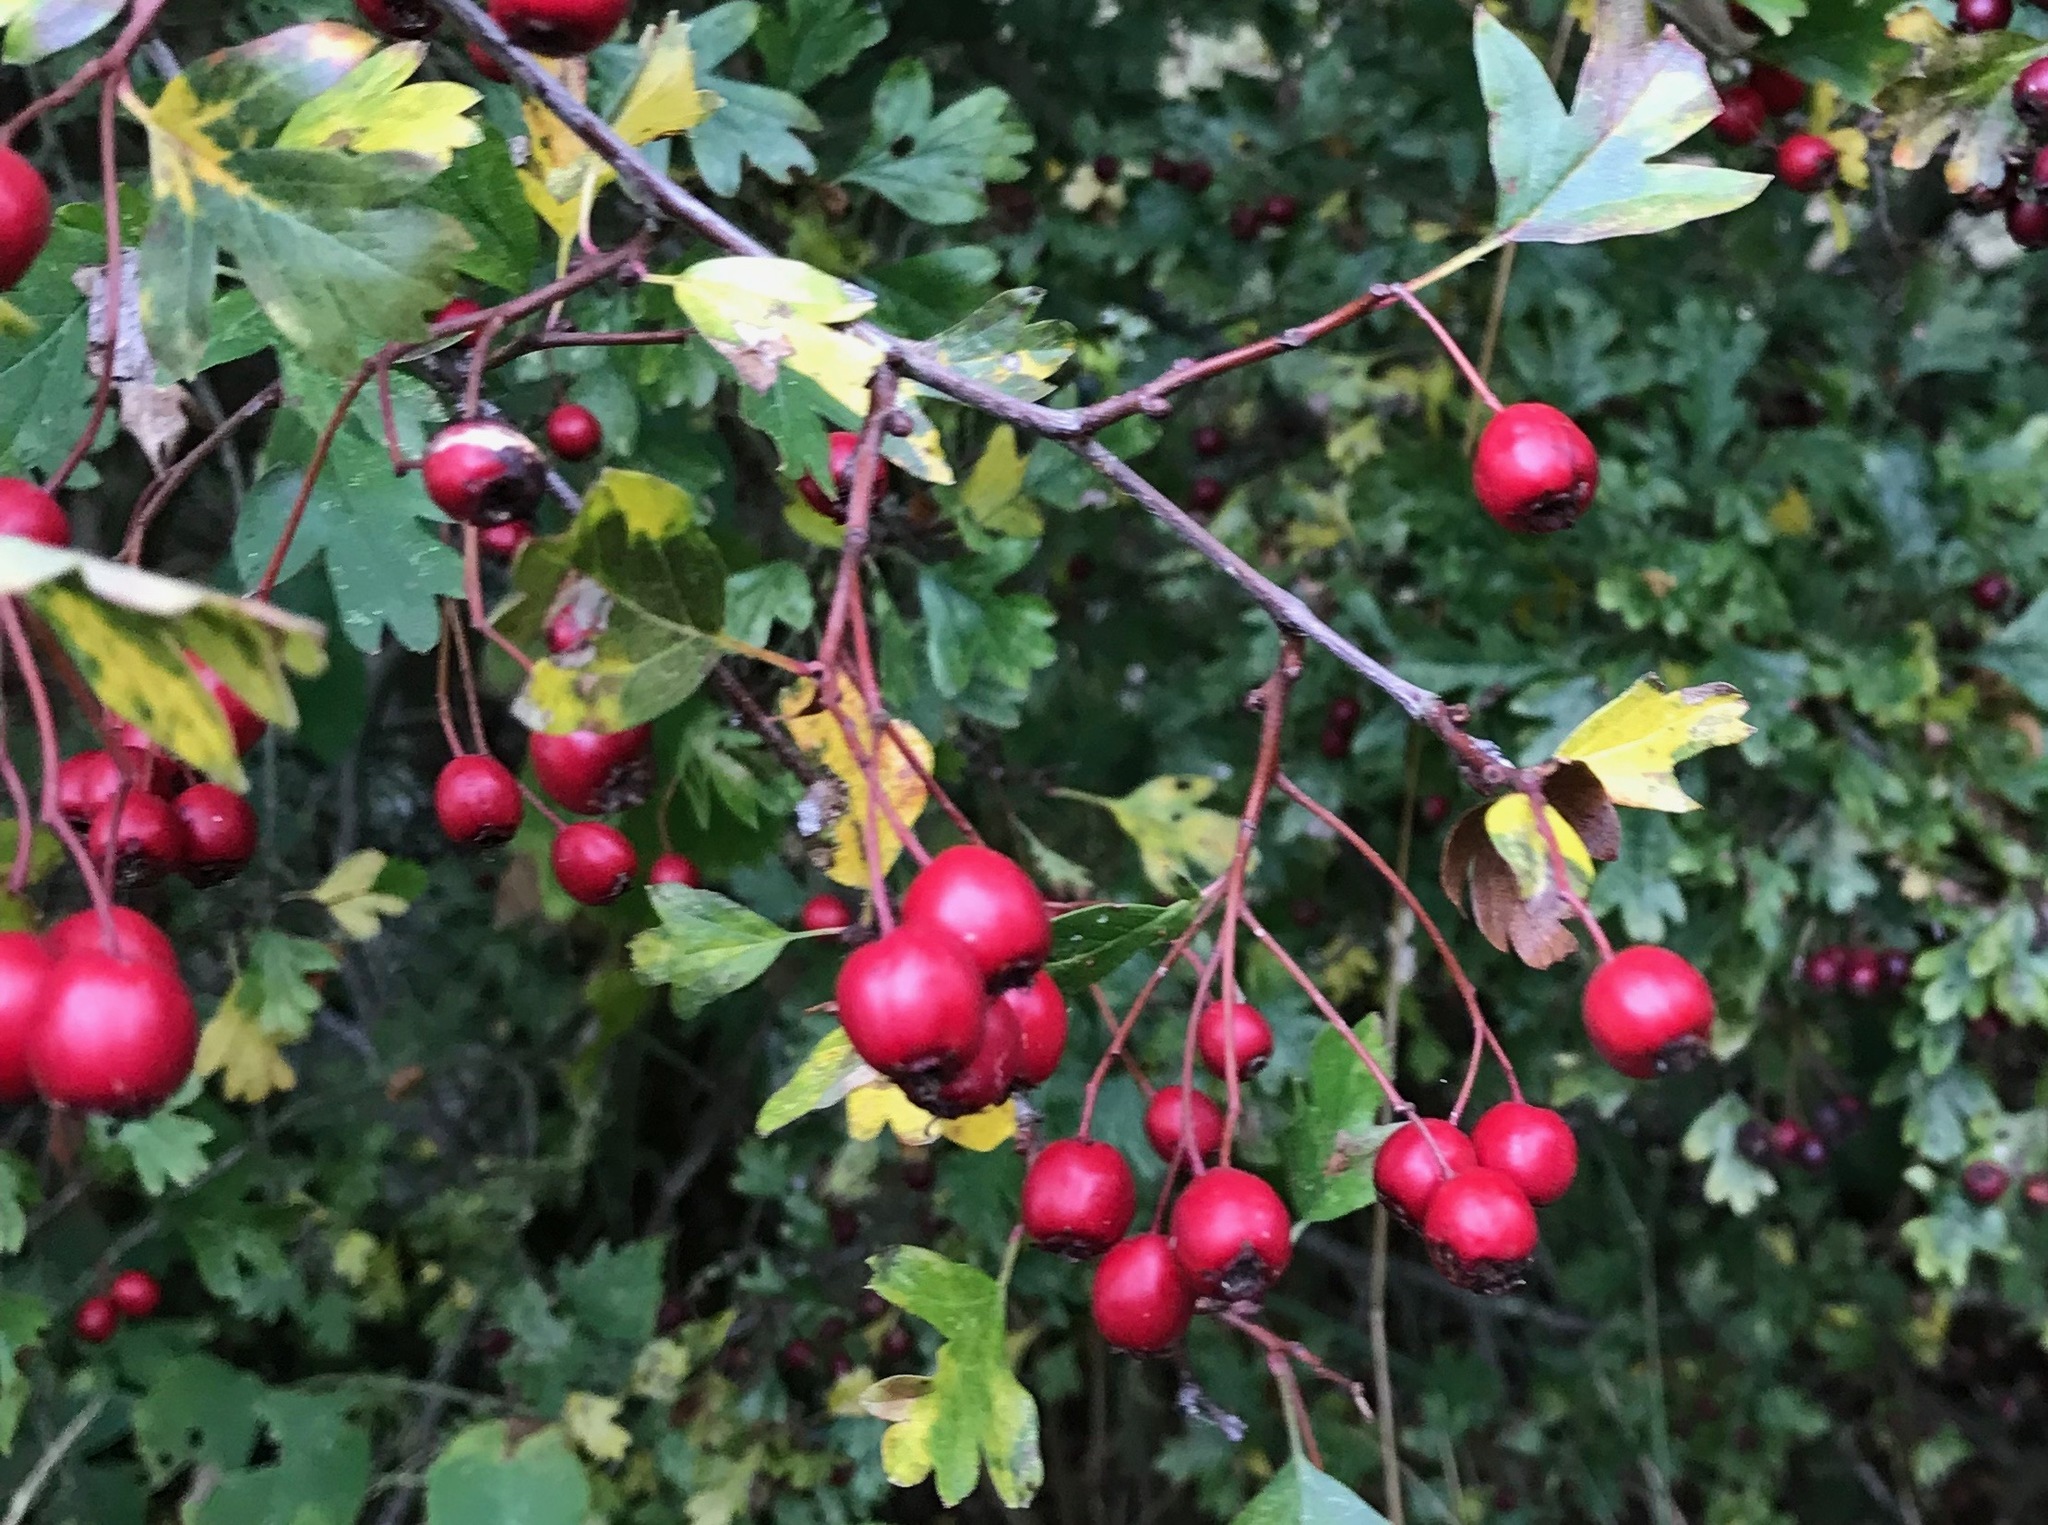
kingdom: Plantae
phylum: Tracheophyta
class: Magnoliopsida
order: Rosales
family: Rosaceae
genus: Crataegus
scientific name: Crataegus monogyna
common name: Hawthorn
